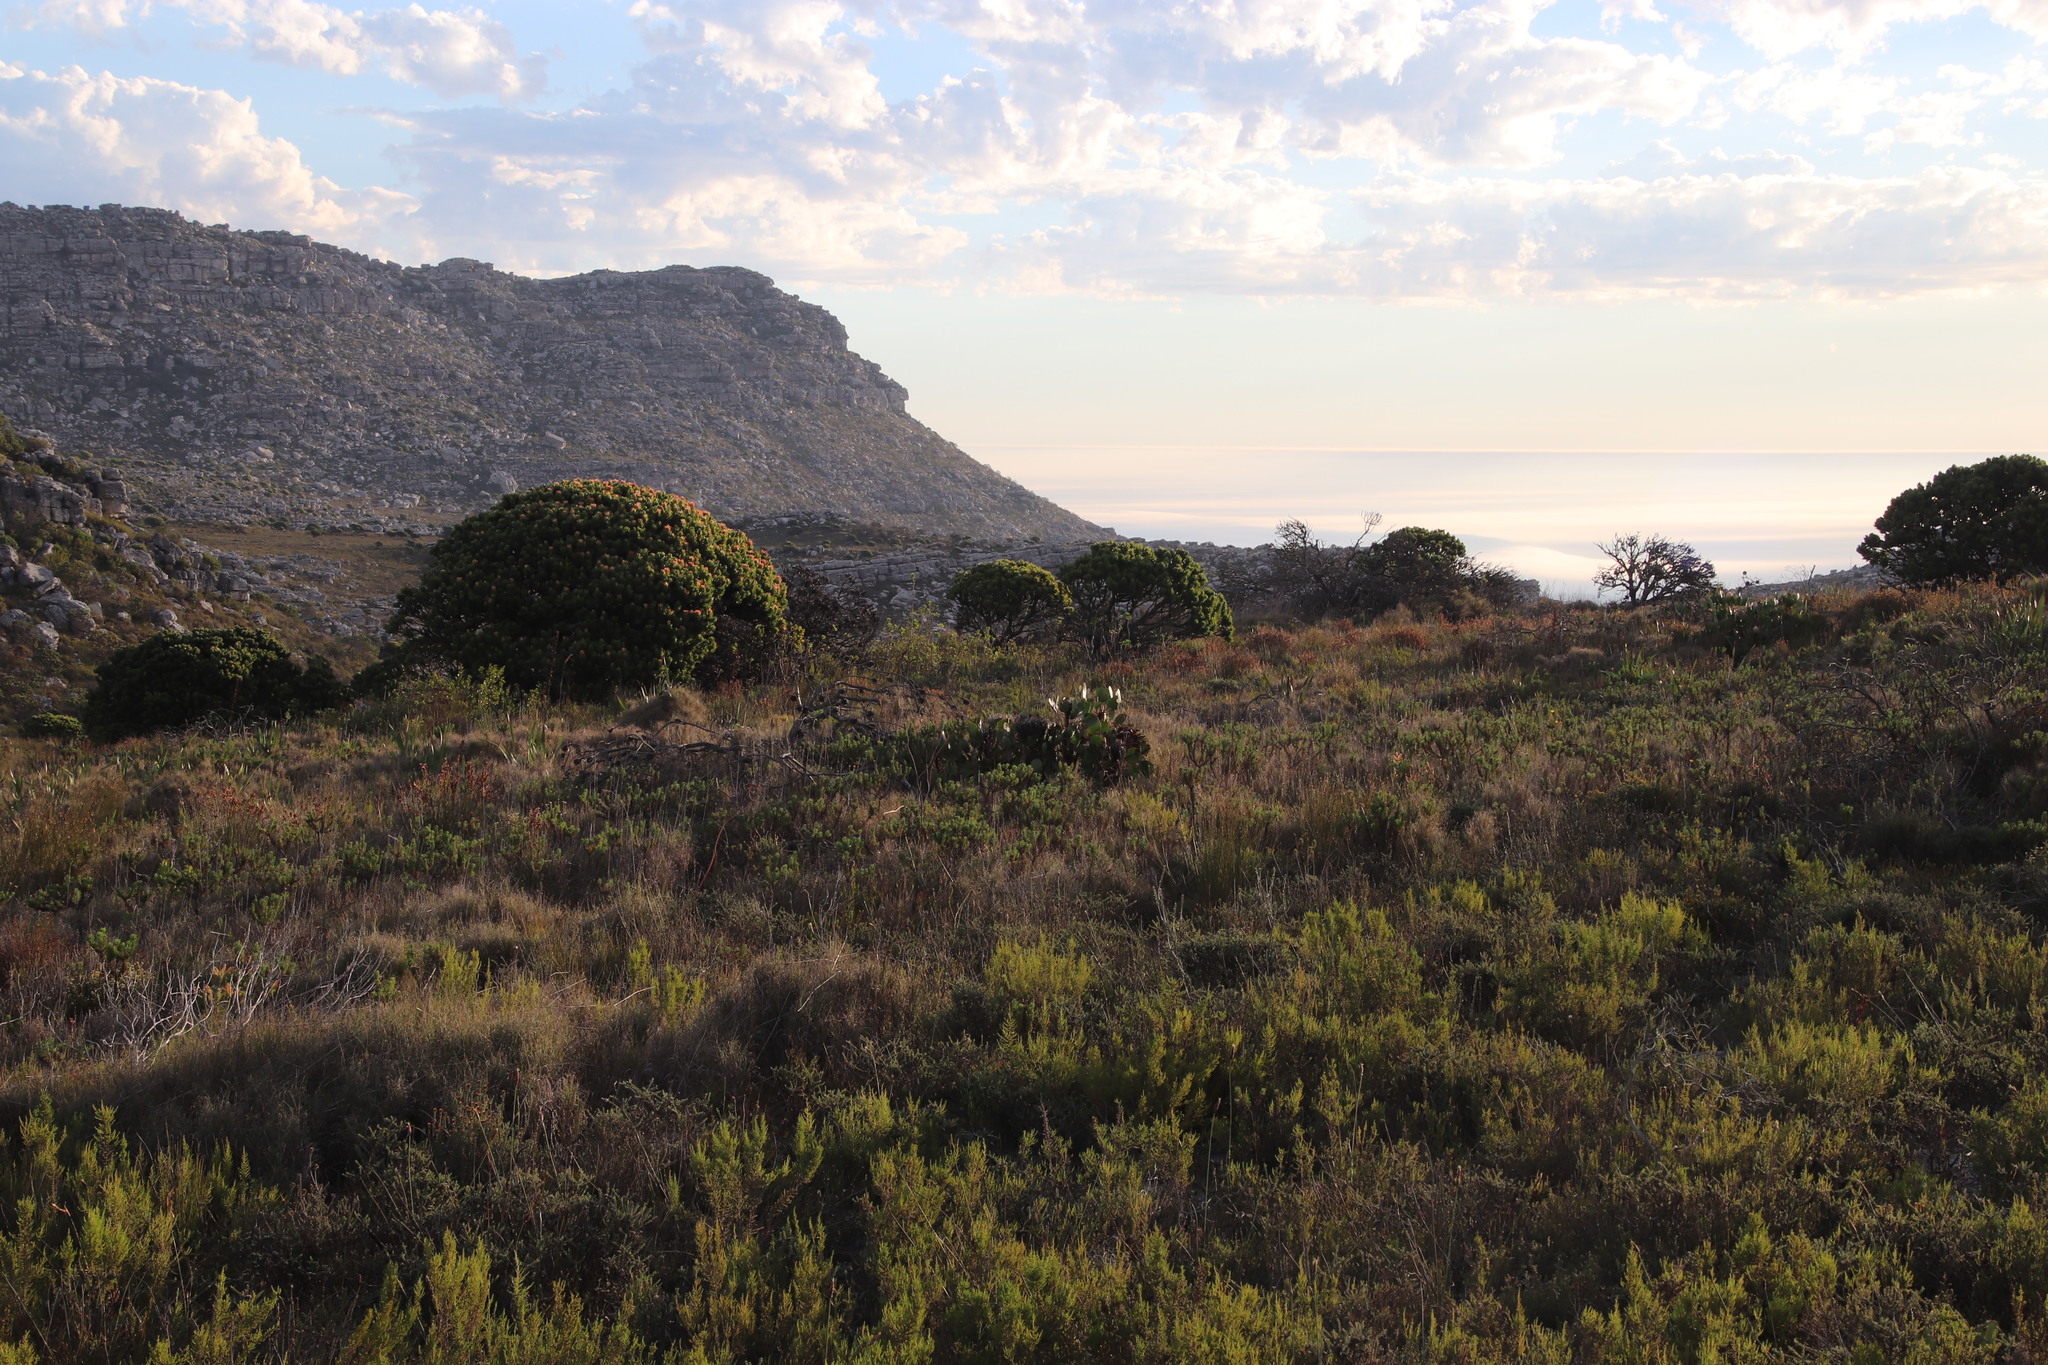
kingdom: Plantae
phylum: Tracheophyta
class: Magnoliopsida
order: Proteales
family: Proteaceae
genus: Protea
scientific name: Protea cynaroides
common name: King protea
